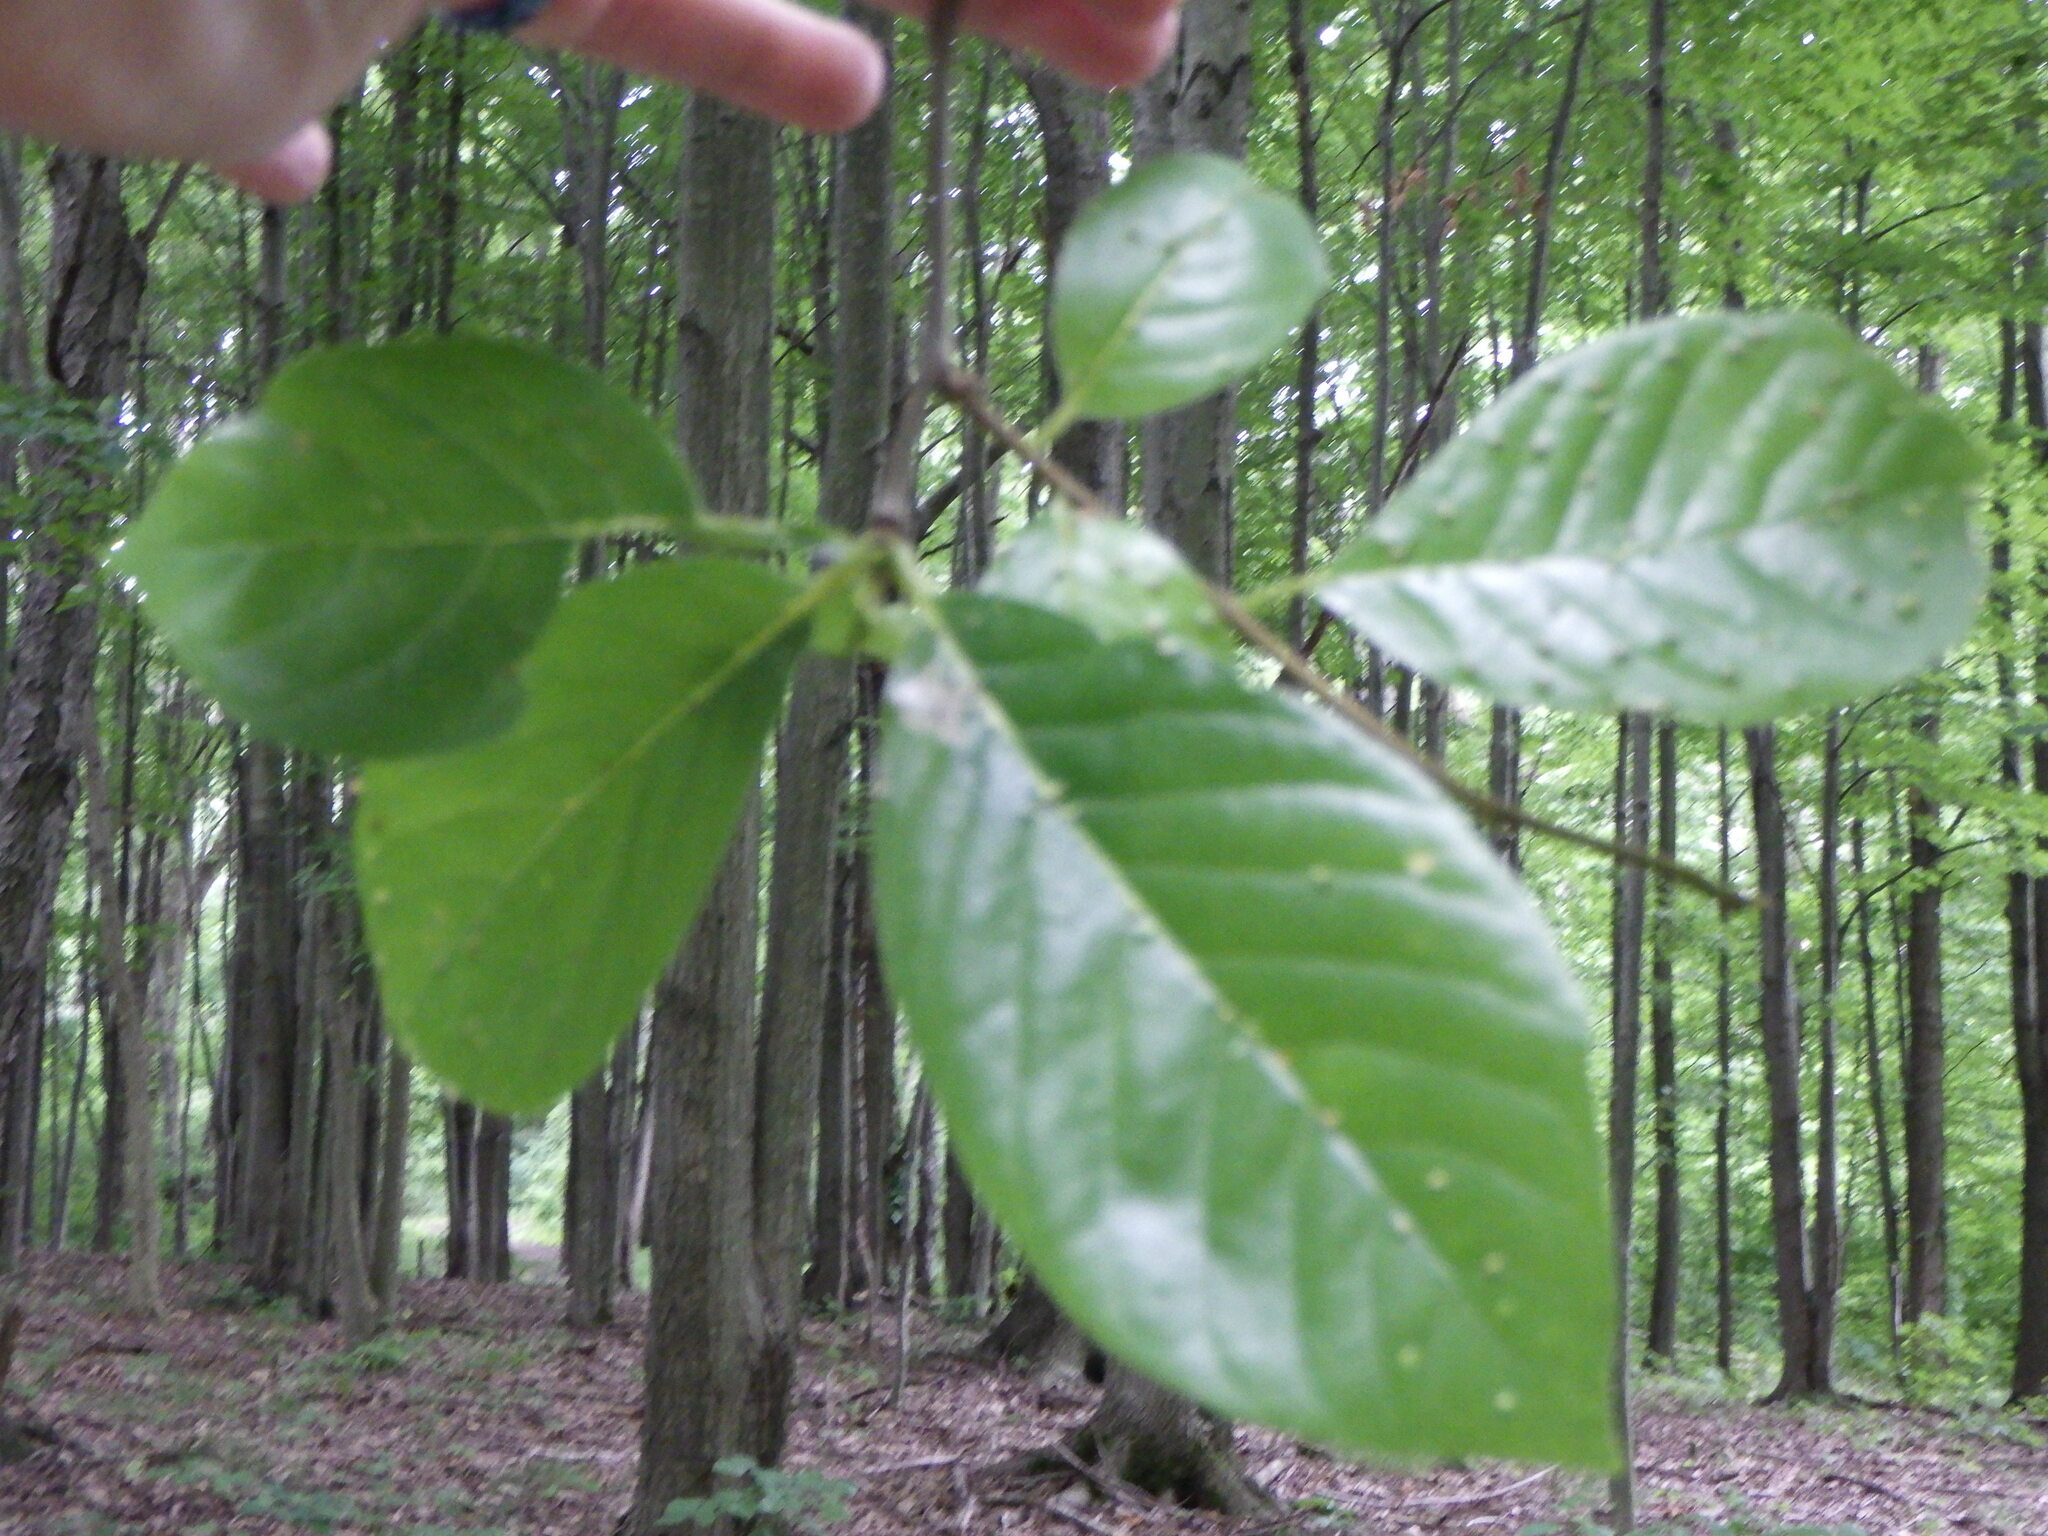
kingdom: Plantae
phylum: Tracheophyta
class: Magnoliopsida
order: Cornales
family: Nyssaceae
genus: Nyssa
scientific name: Nyssa sylvatica
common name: Black tupelo
